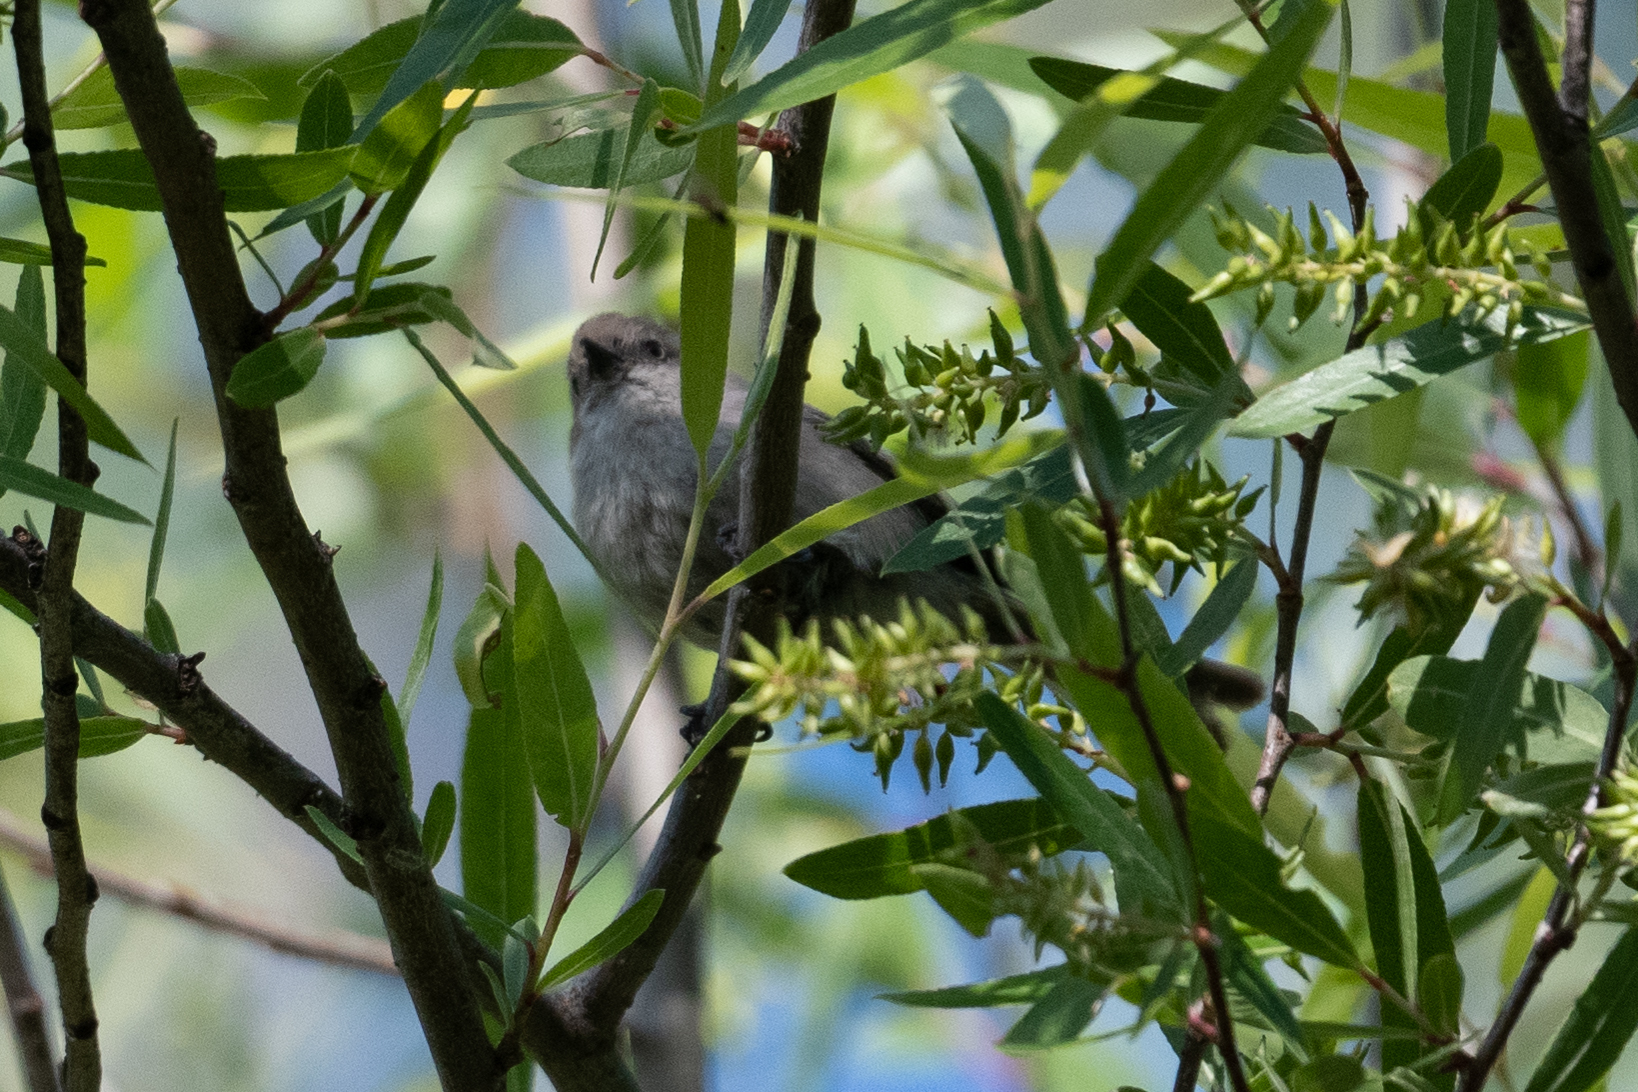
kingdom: Animalia
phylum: Chordata
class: Aves
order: Passeriformes
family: Aegithalidae
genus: Psaltriparus
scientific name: Psaltriparus minimus
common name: American bushtit
